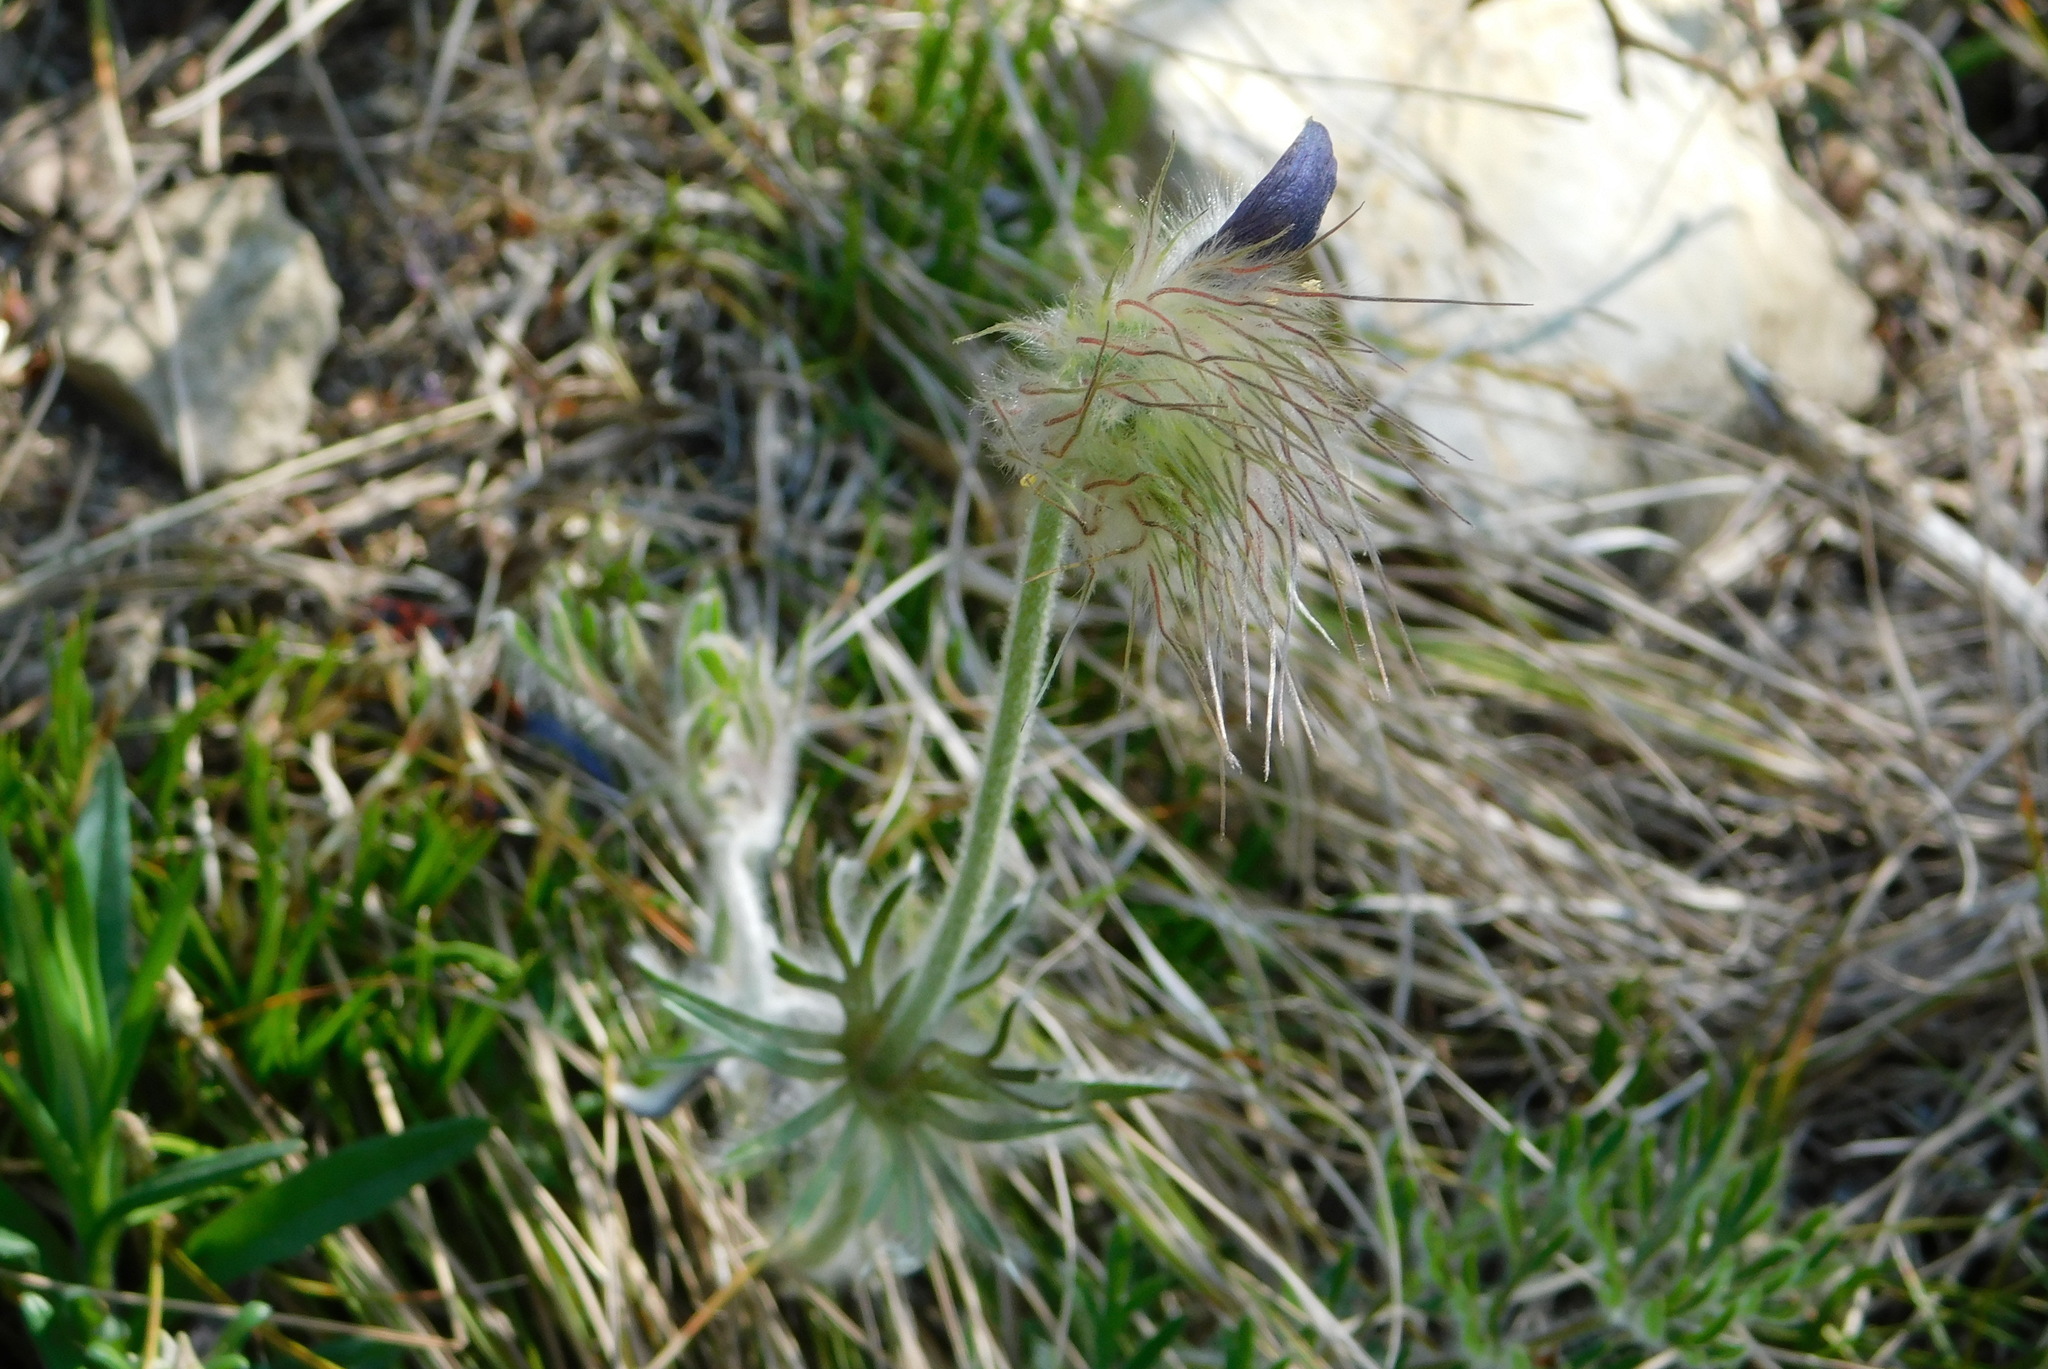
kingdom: Plantae
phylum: Tracheophyta
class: Magnoliopsida
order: Ranunculales
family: Ranunculaceae
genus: Pulsatilla
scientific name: Pulsatilla pratensis
